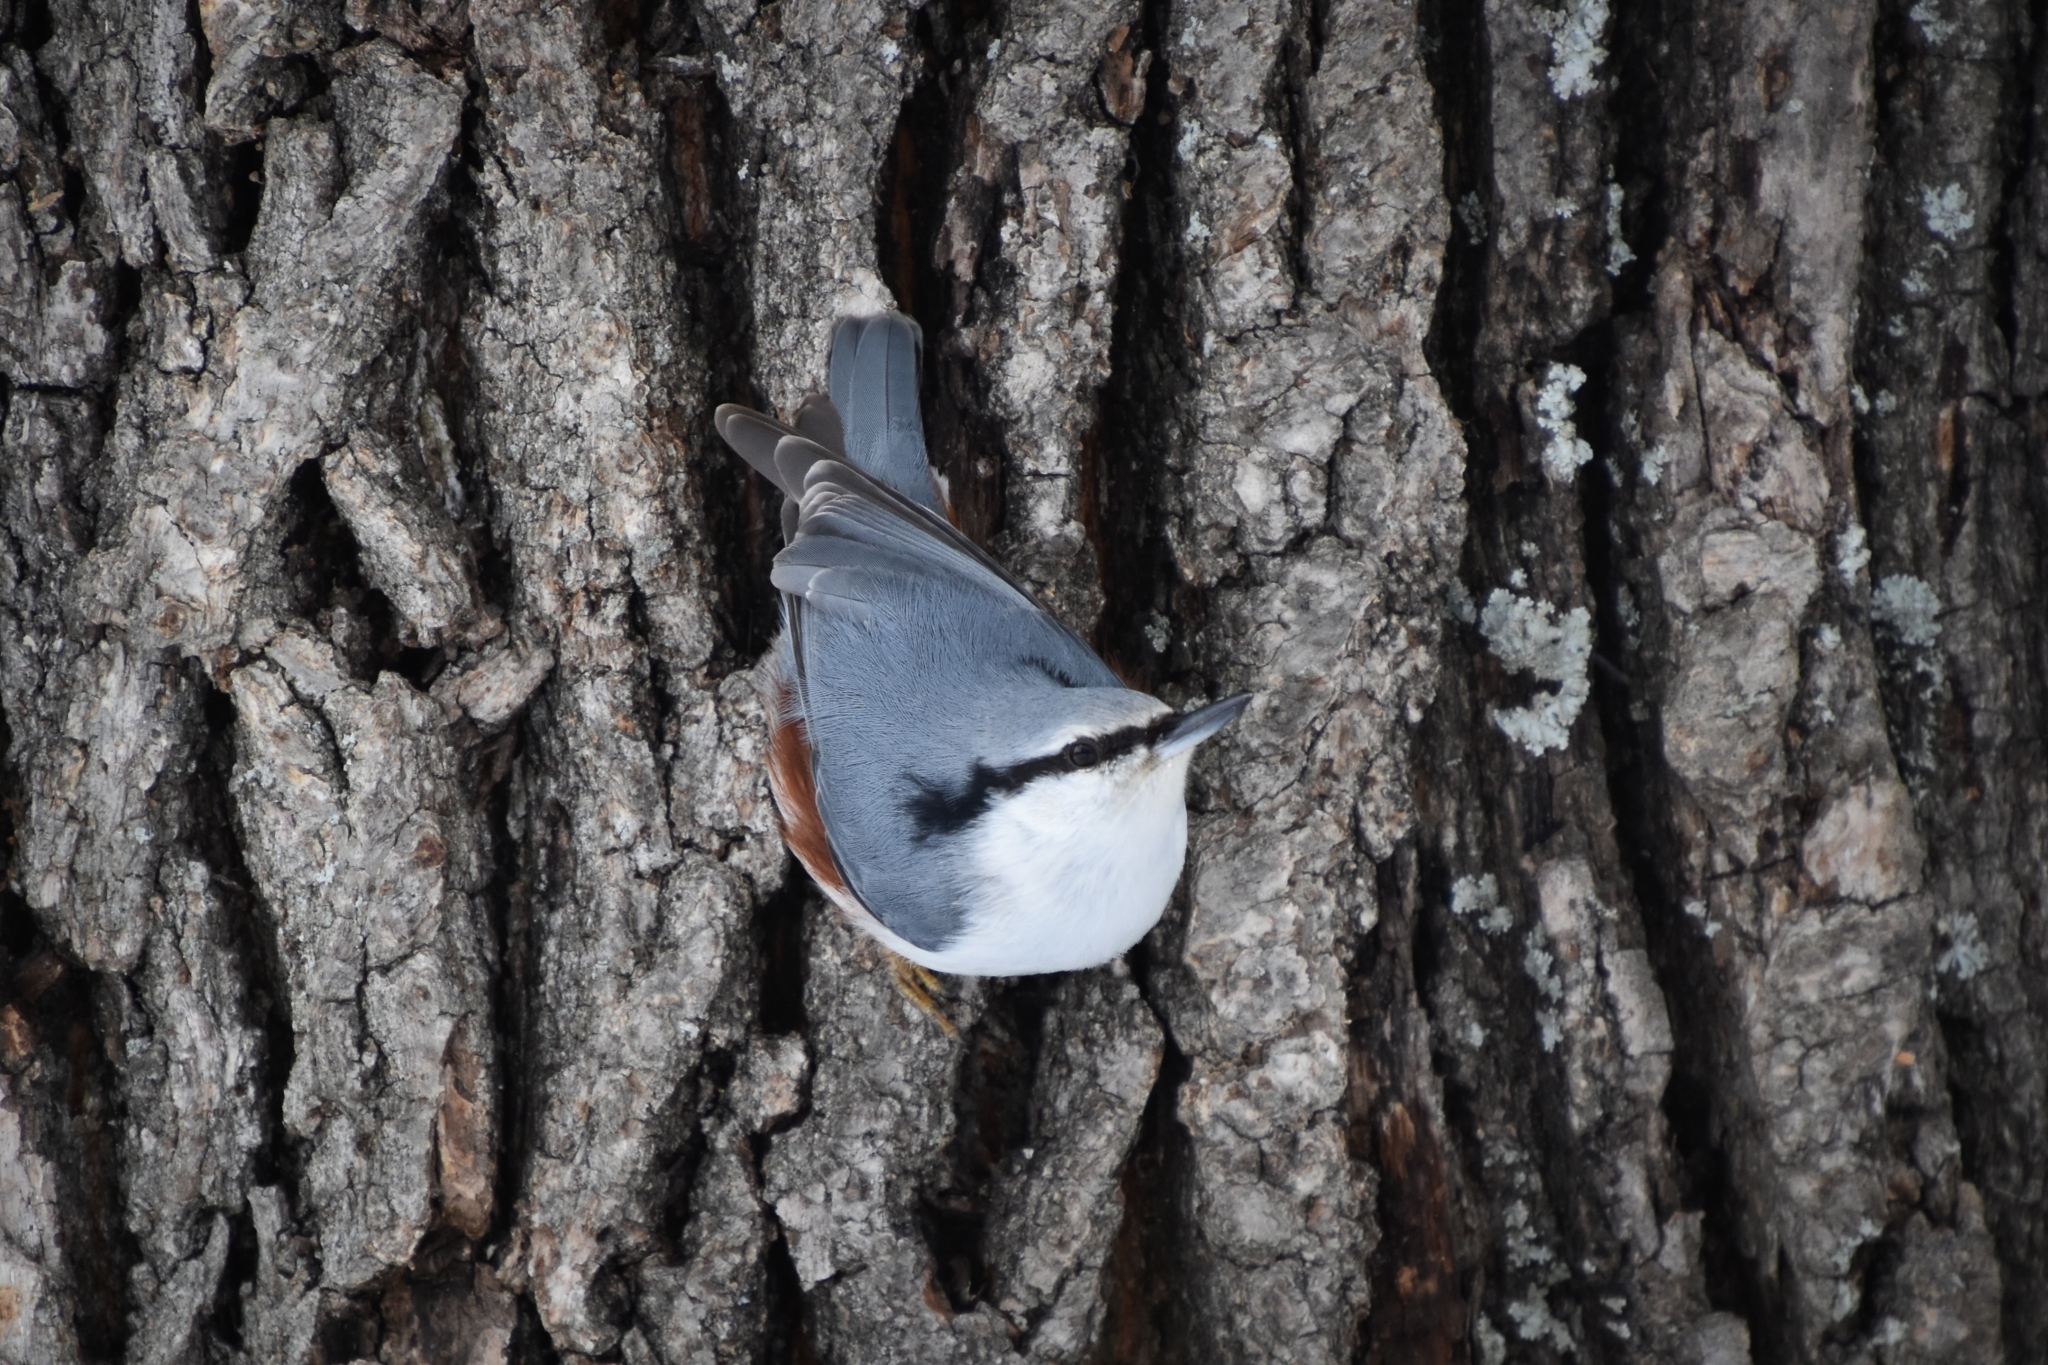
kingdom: Animalia
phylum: Chordata
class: Aves
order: Passeriformes
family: Sittidae
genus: Sitta
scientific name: Sitta europaea
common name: Eurasian nuthatch
